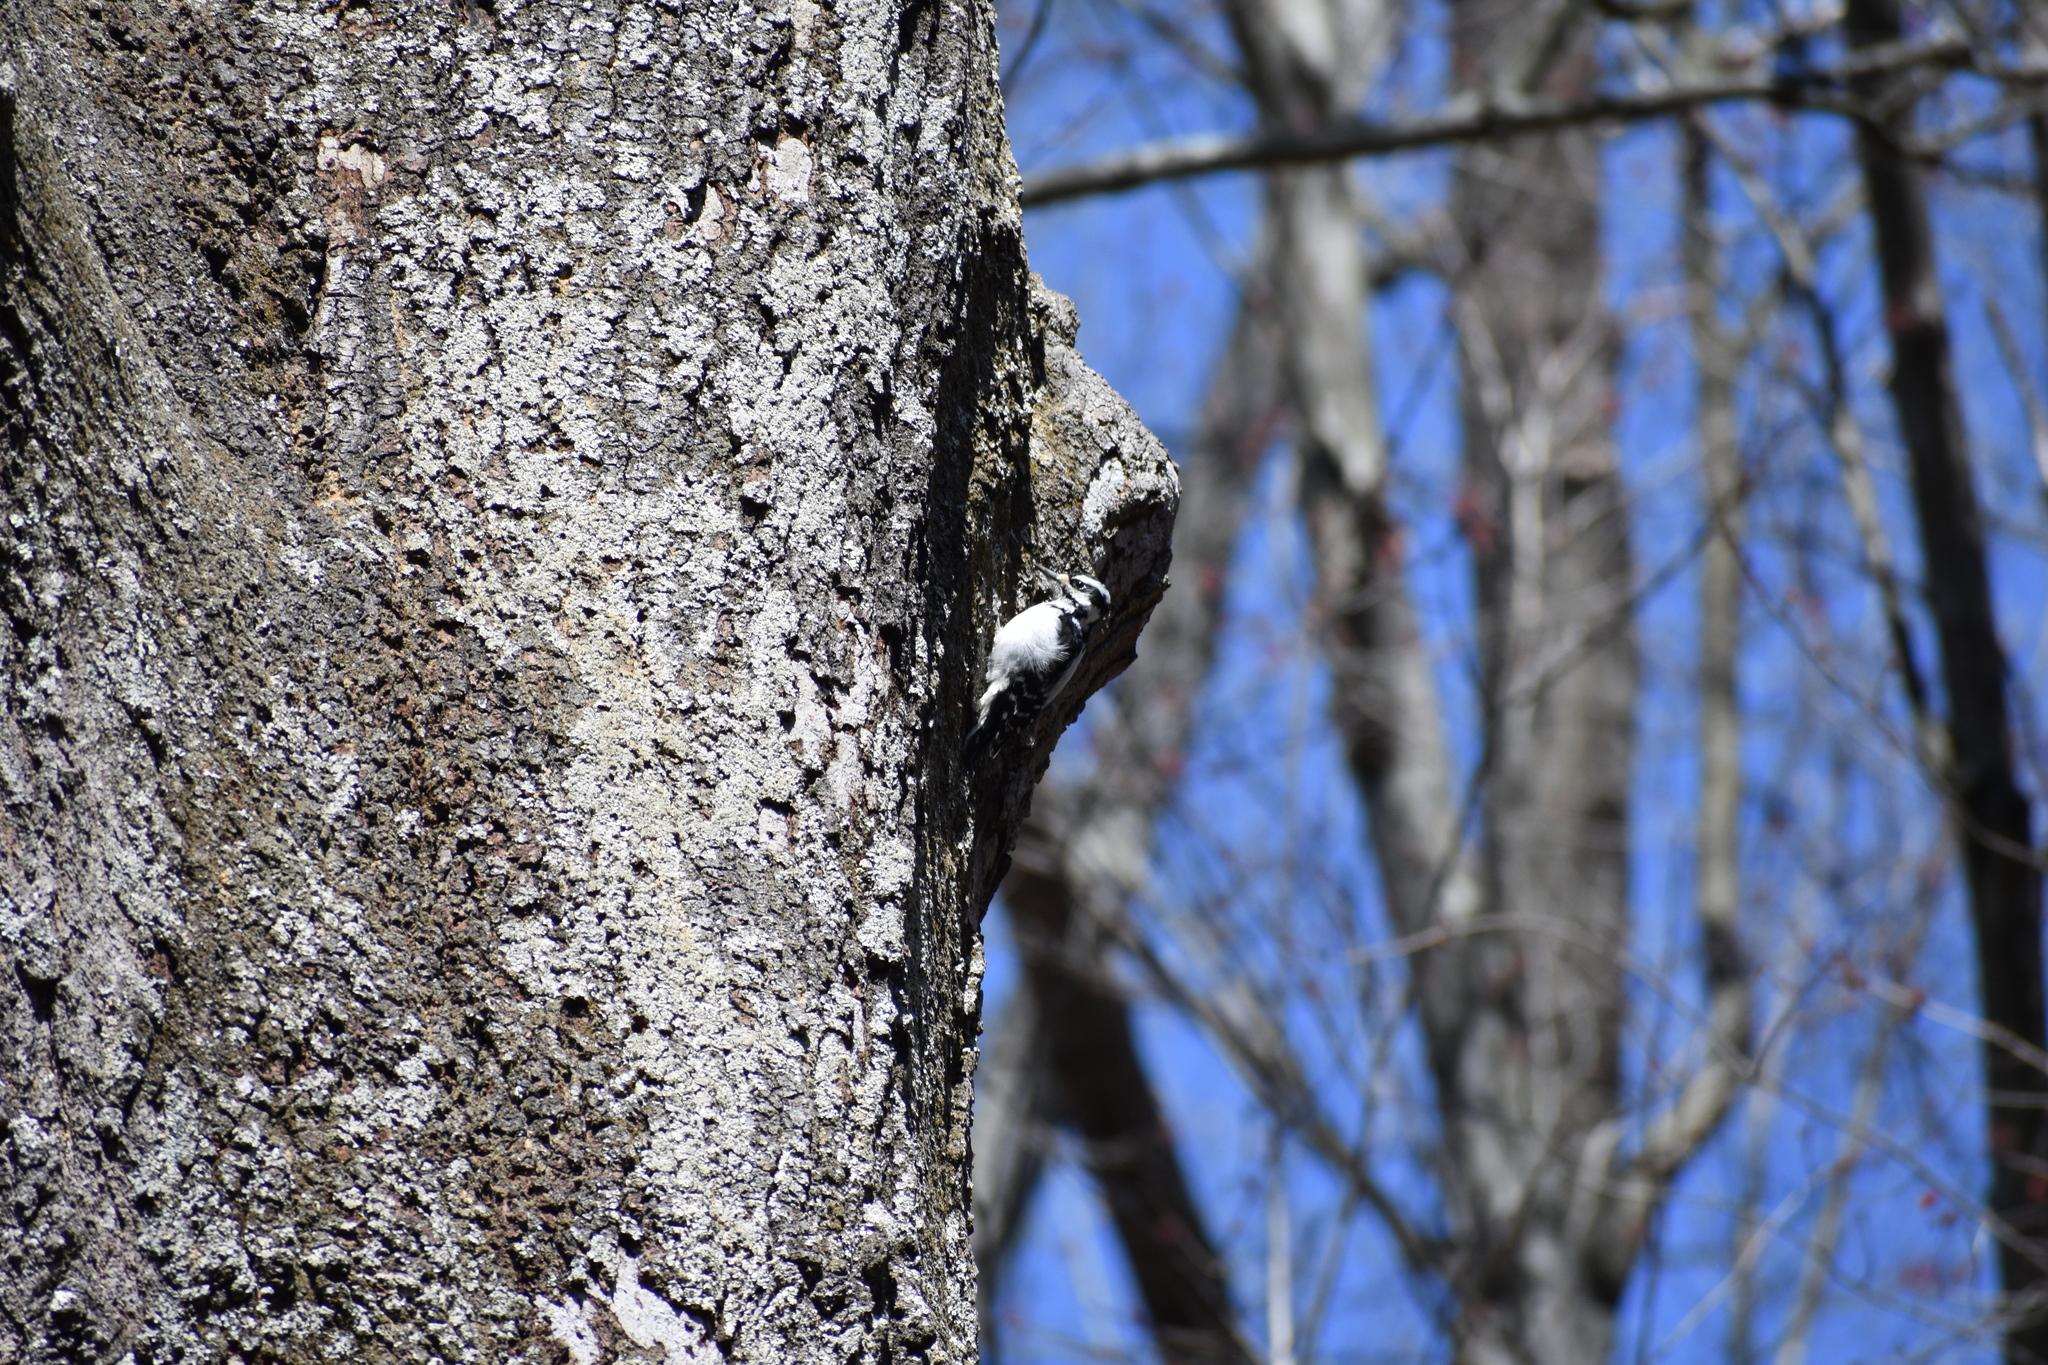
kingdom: Animalia
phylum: Chordata
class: Aves
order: Piciformes
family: Picidae
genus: Leuconotopicus
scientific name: Leuconotopicus villosus
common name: Hairy woodpecker
